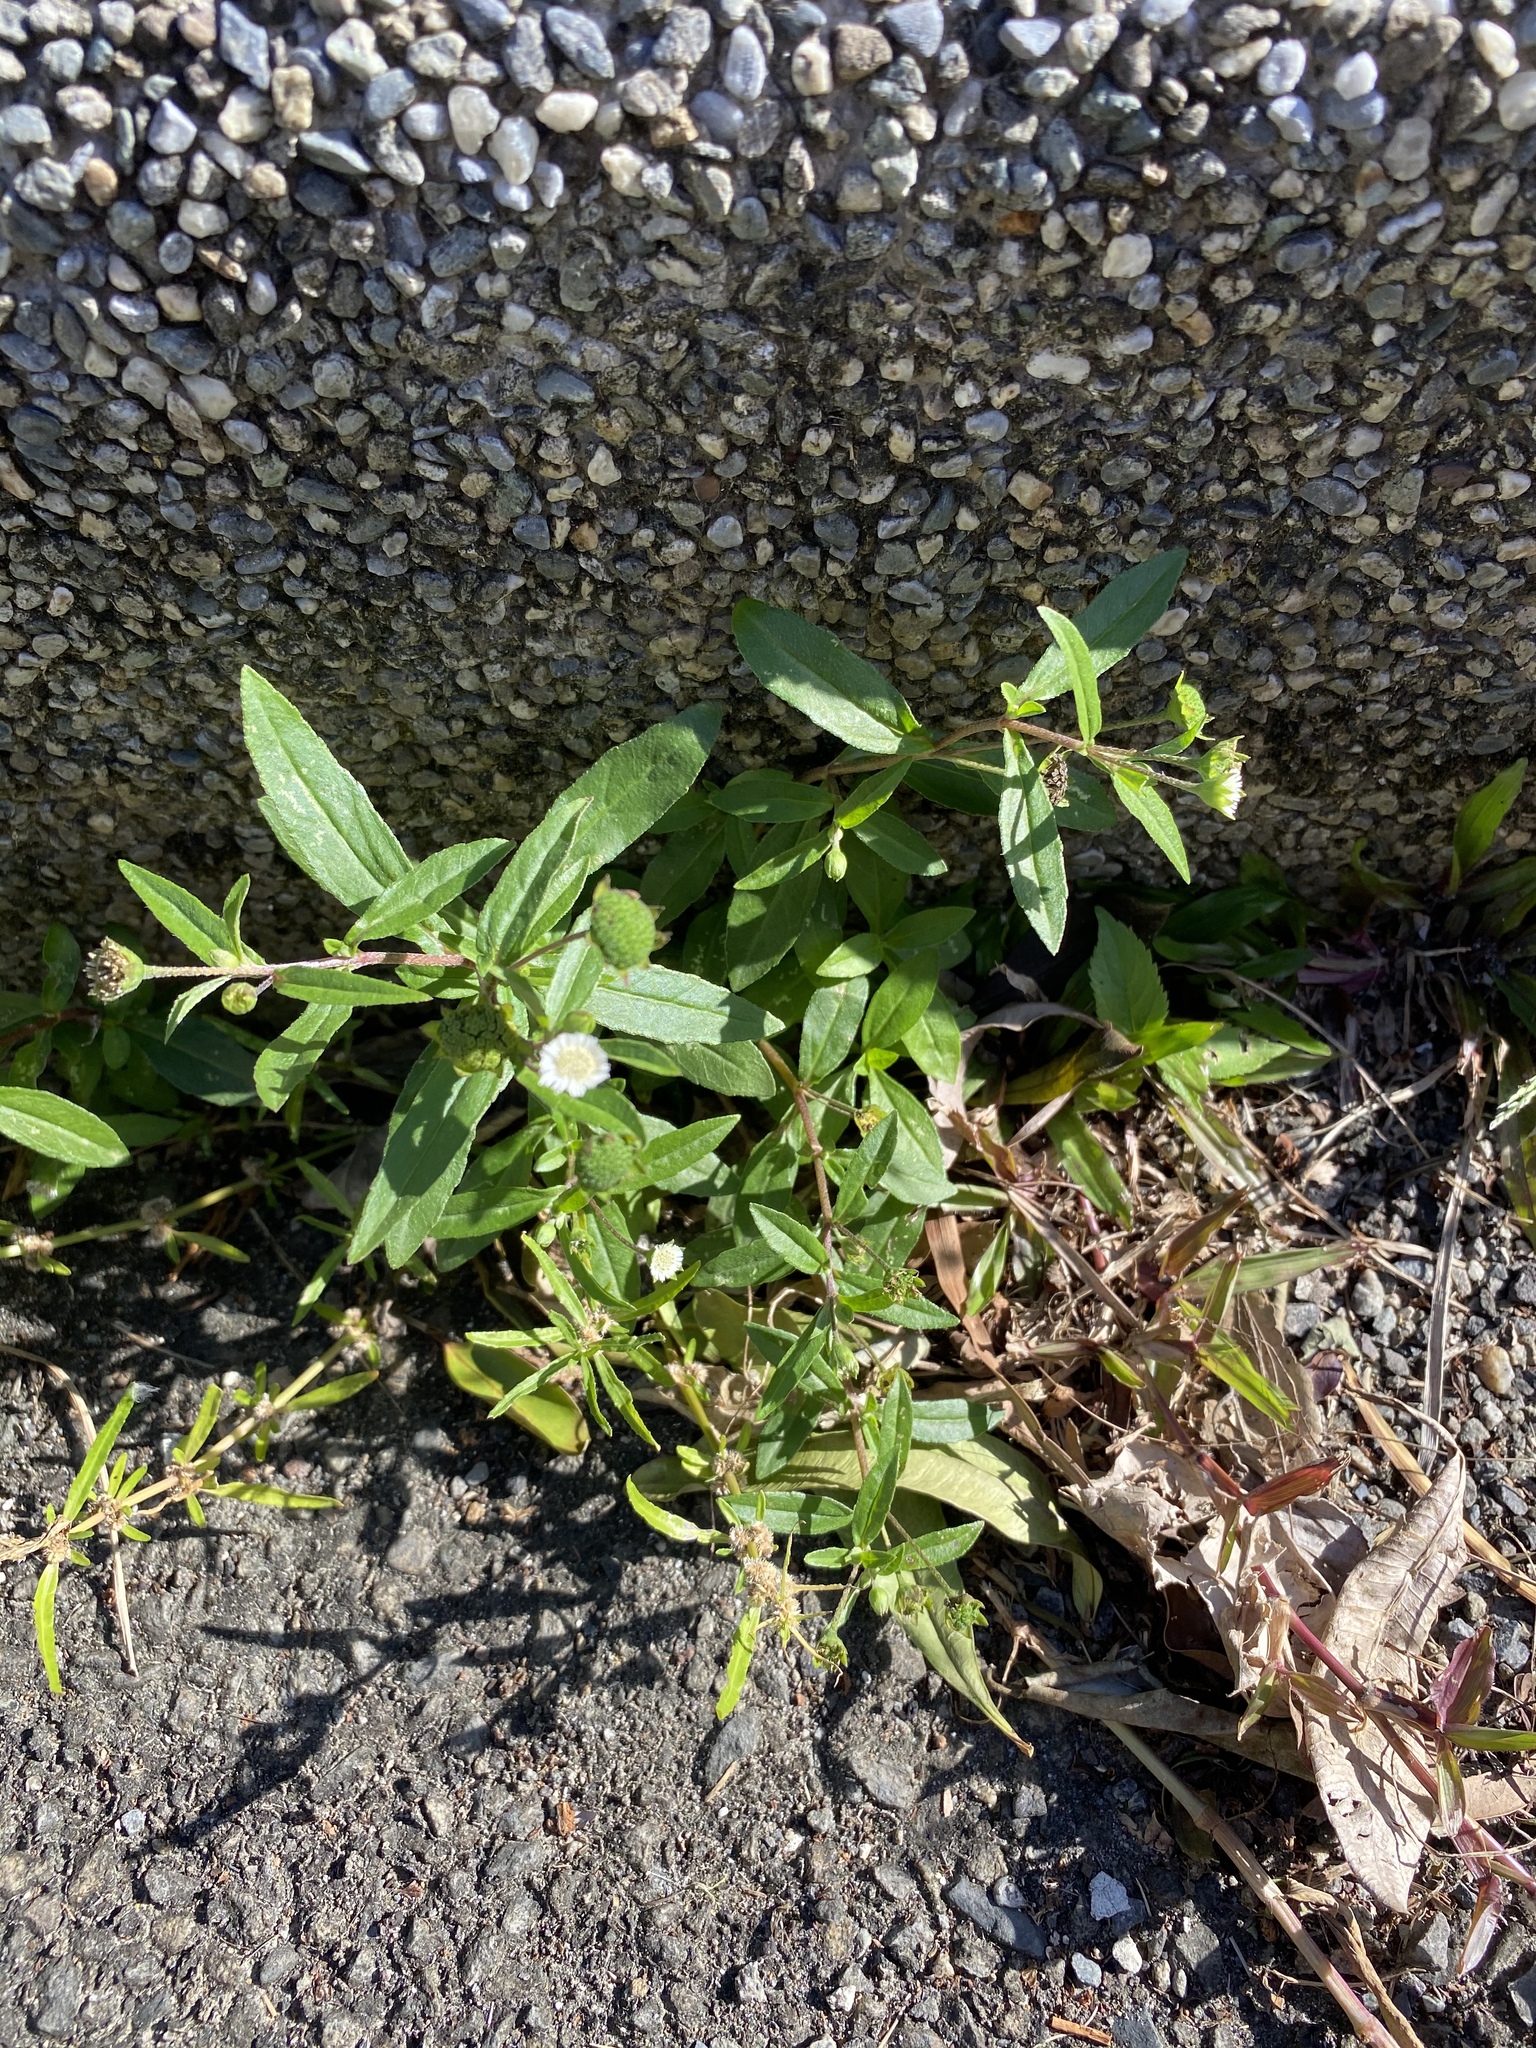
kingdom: Plantae
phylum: Tracheophyta
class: Magnoliopsida
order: Asterales
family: Asteraceae
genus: Eclipta
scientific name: Eclipta prostrata
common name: False daisy
